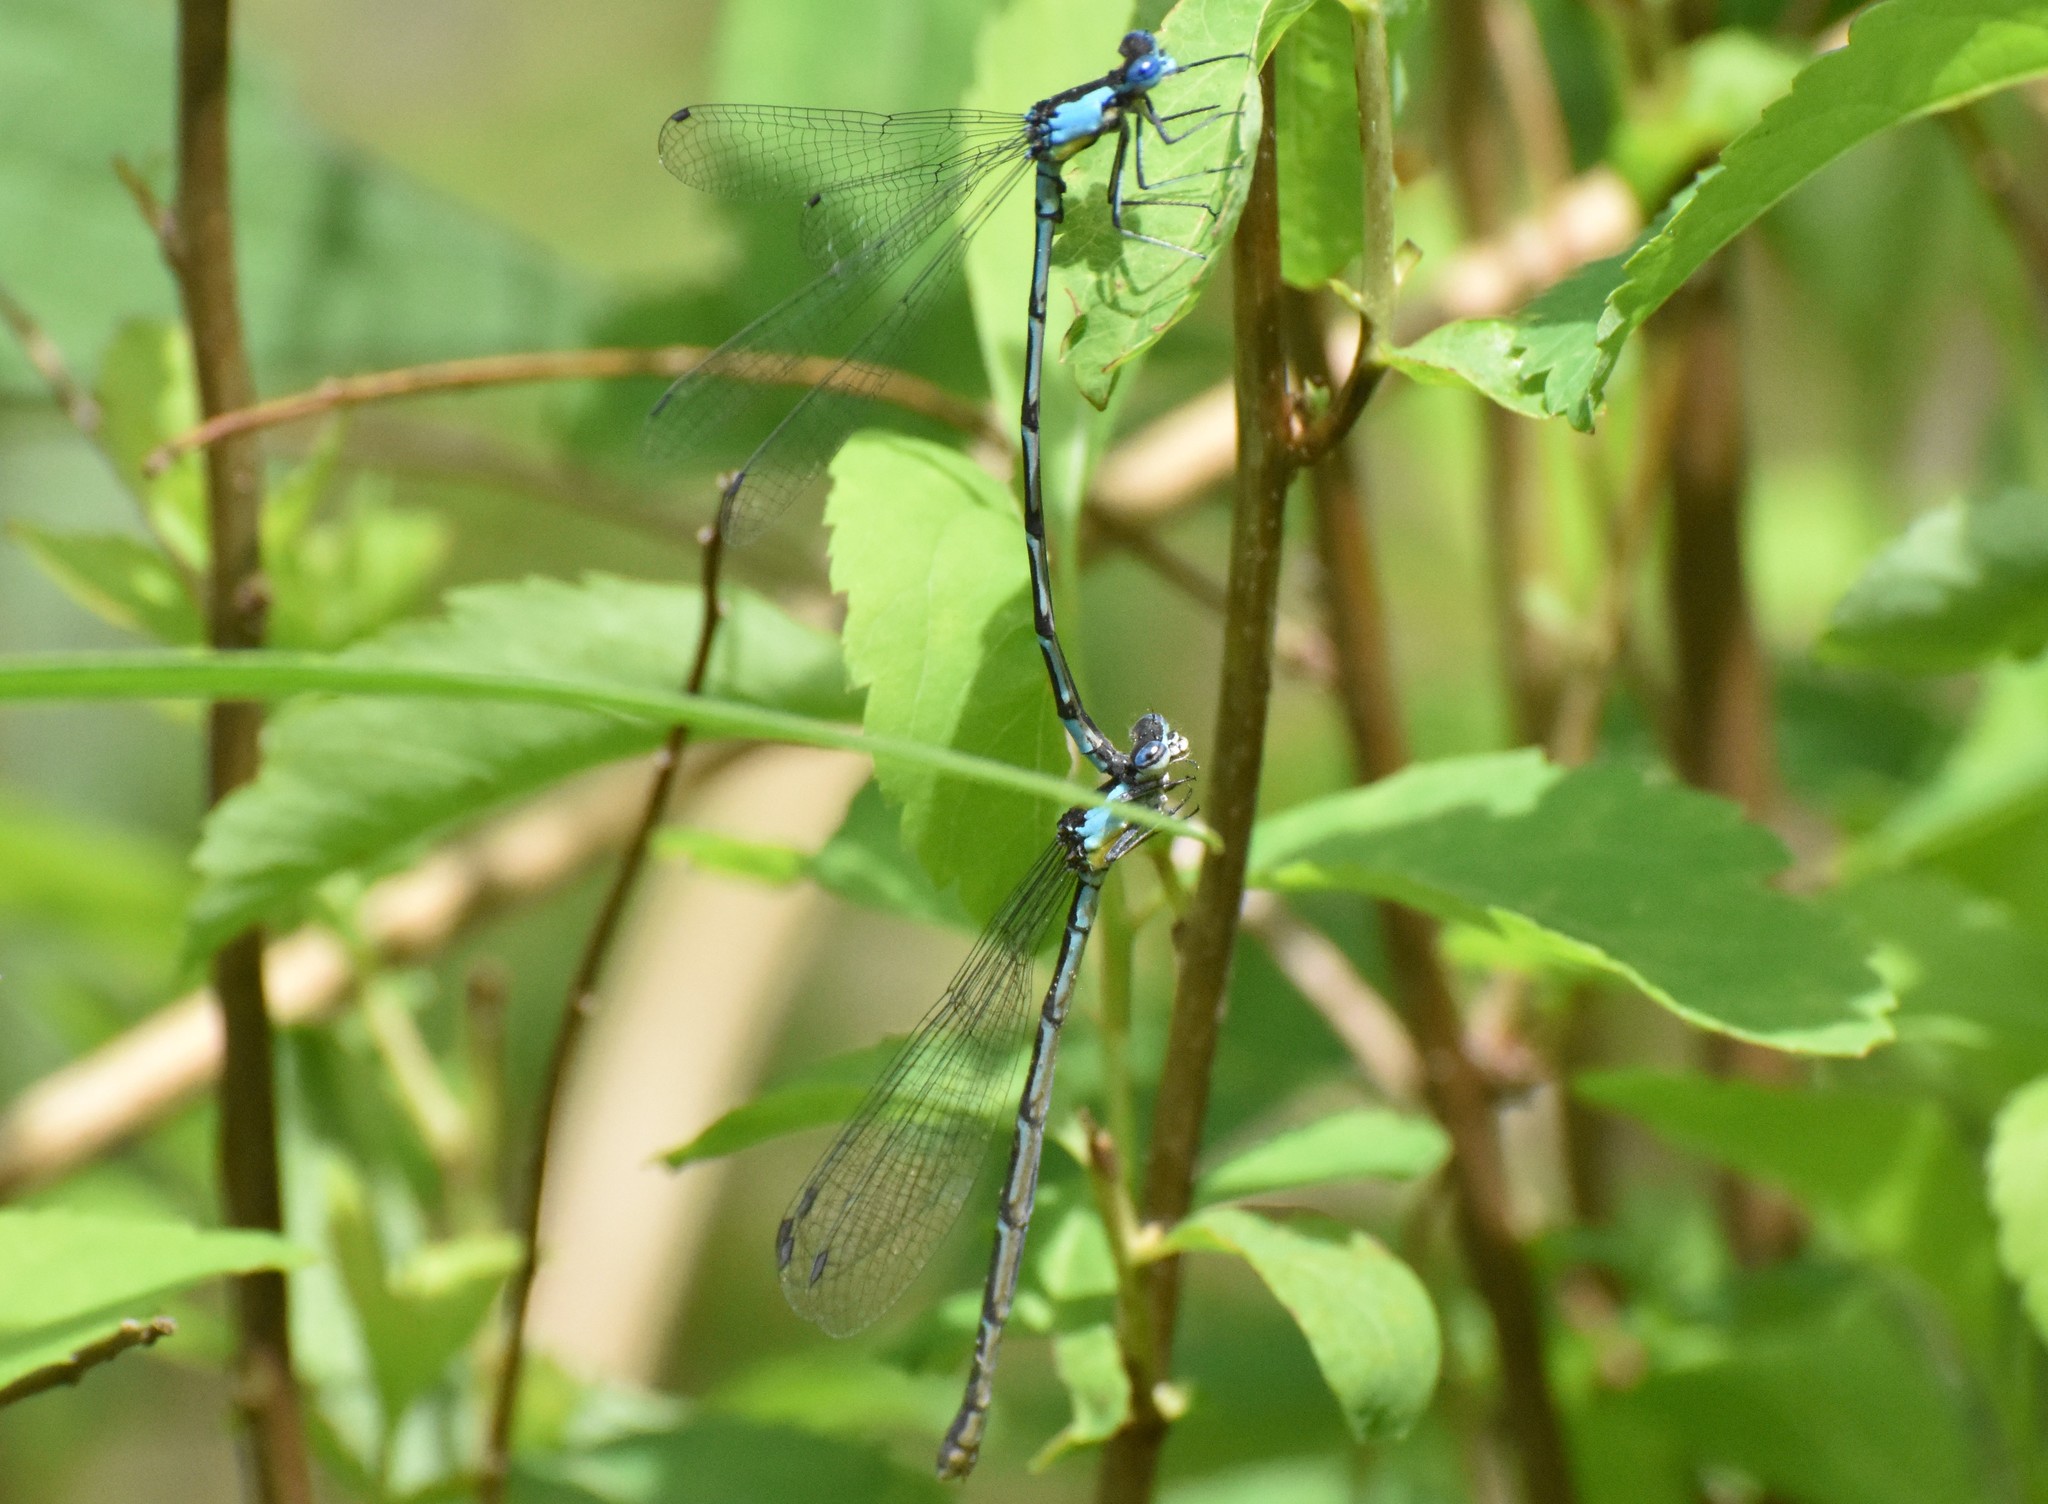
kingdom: Animalia
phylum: Arthropoda
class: Insecta
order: Odonata
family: Coenagrionidae
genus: Chromagrion
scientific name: Chromagrion conditum
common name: Aurora damsel
